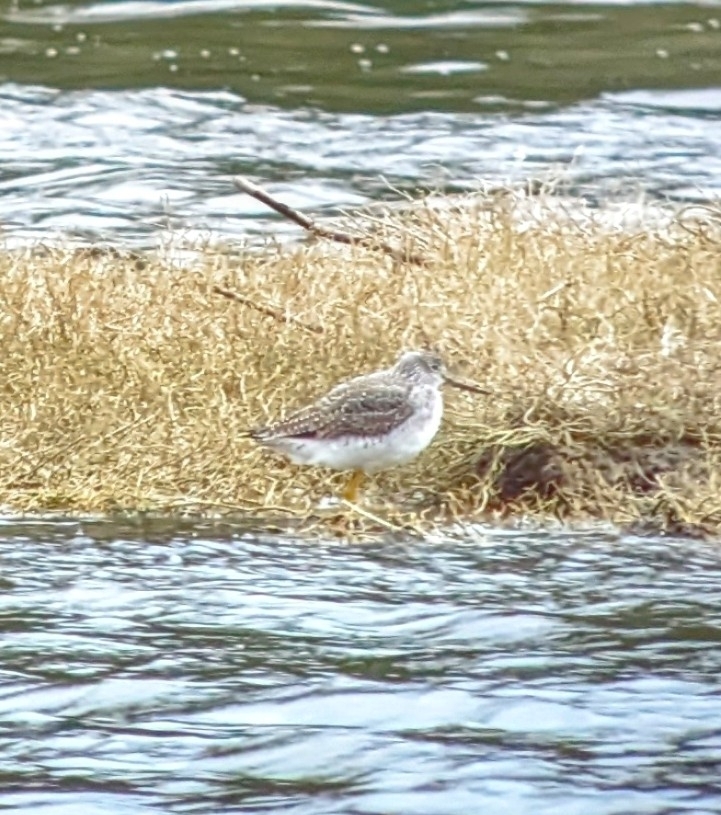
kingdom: Animalia
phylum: Chordata
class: Aves
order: Charadriiformes
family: Scolopacidae
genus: Tringa
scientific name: Tringa melanoleuca
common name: Greater yellowlegs
